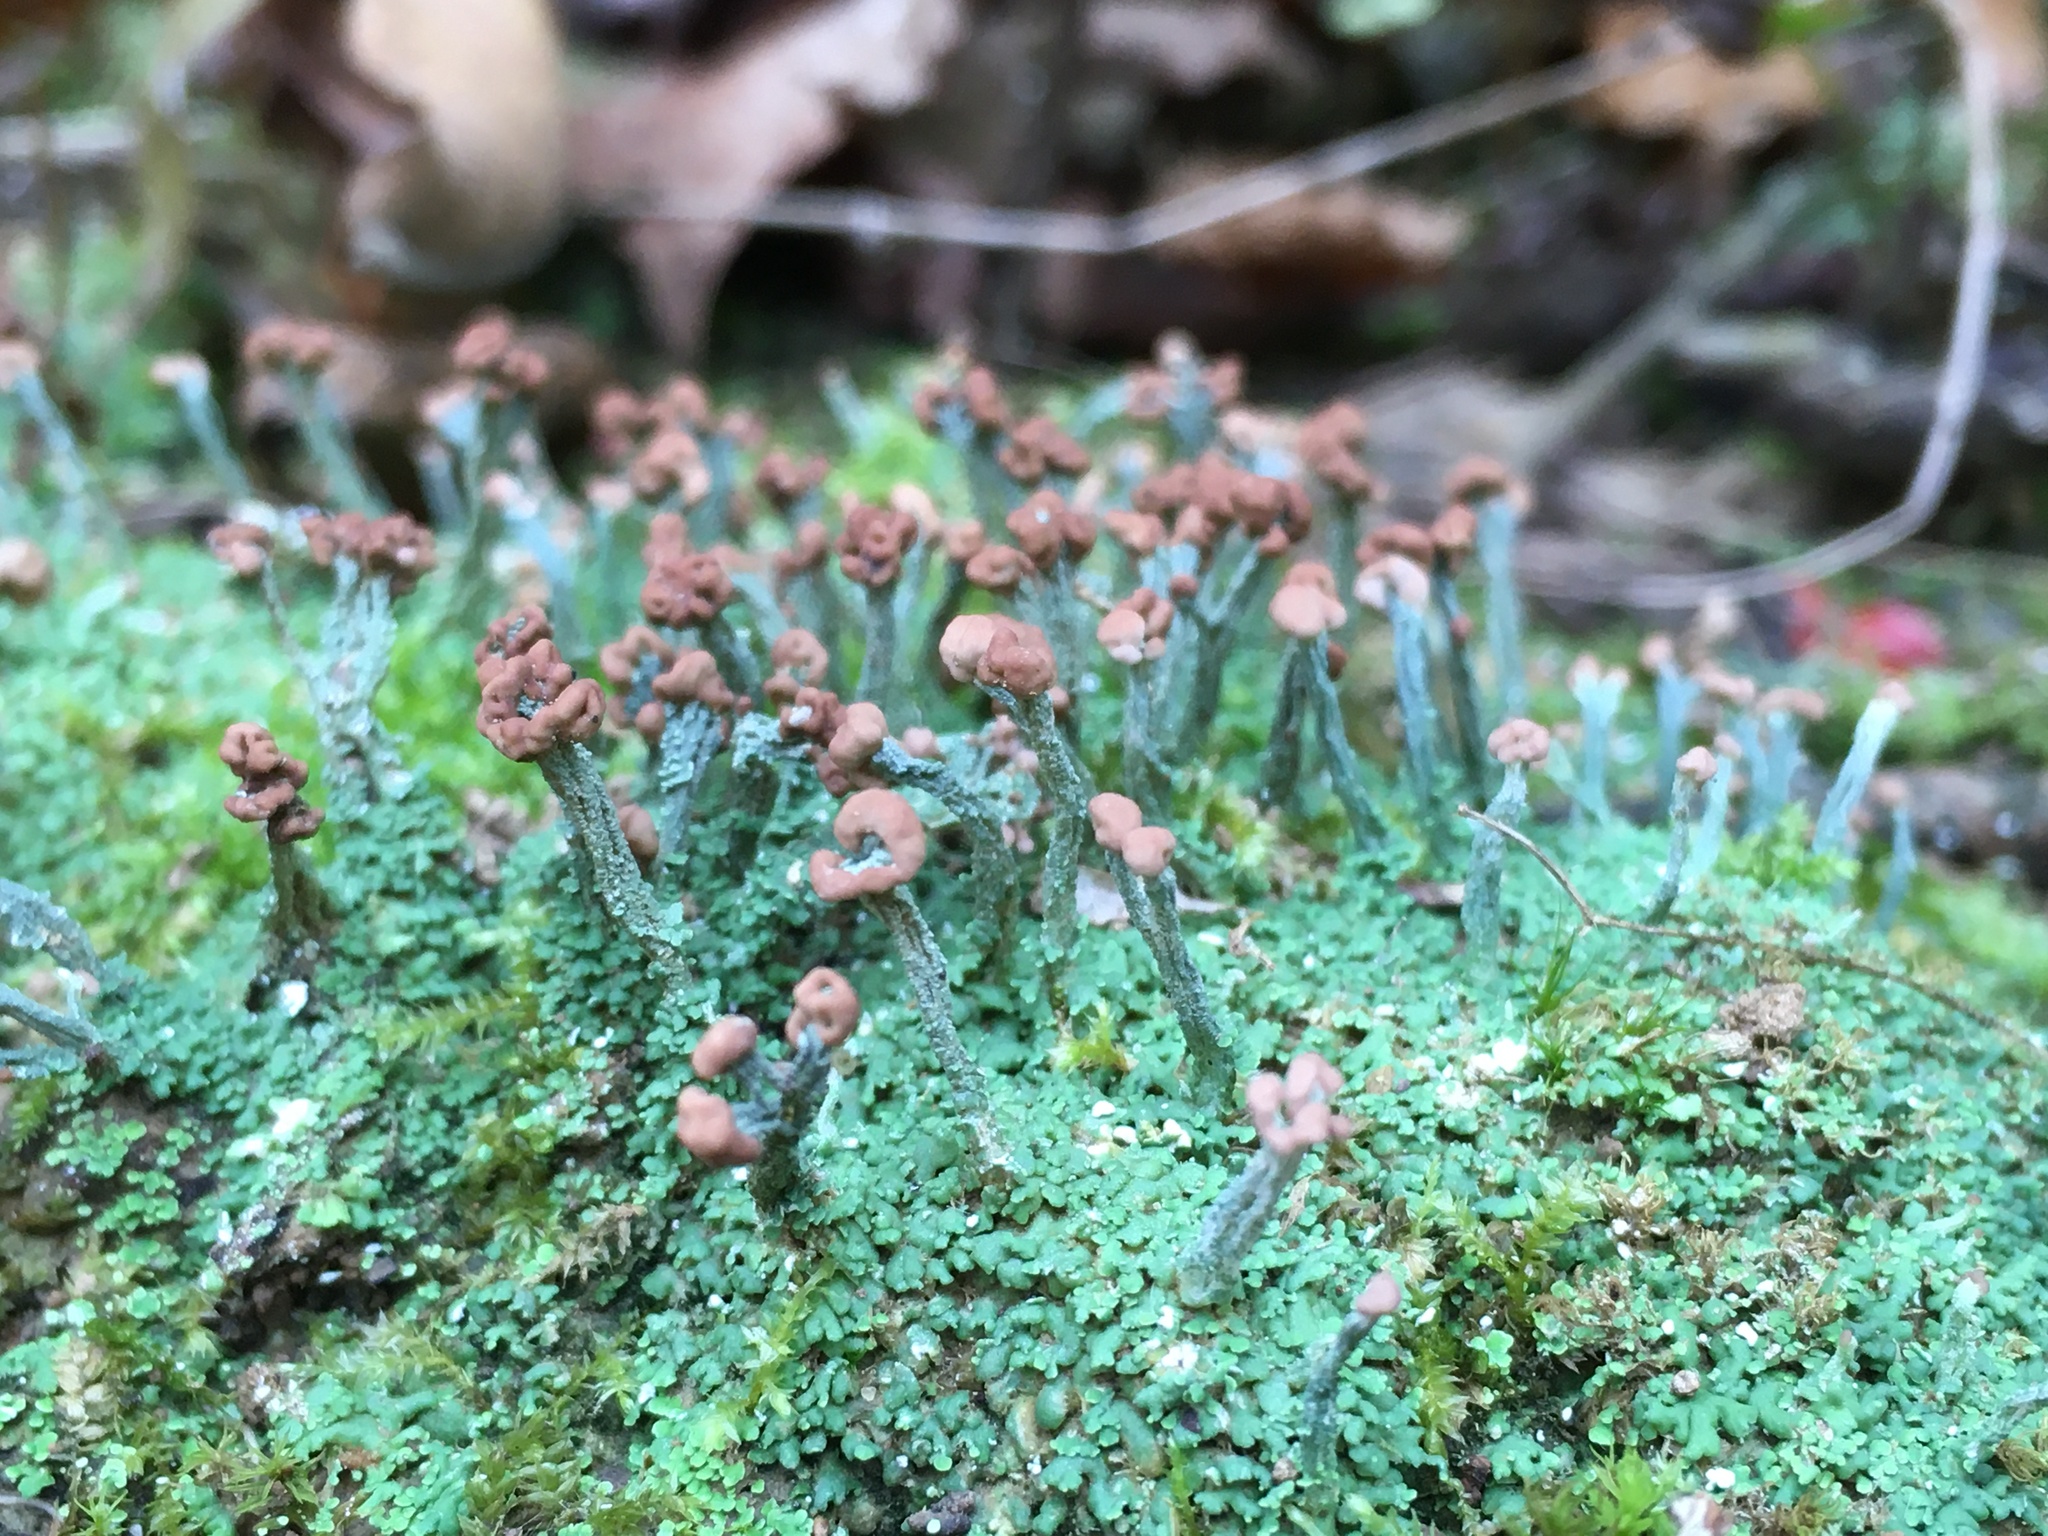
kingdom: Fungi
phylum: Ascomycota
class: Lecanoromycetes
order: Lecanorales
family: Cladoniaceae
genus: Cladonia
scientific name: Cladonia peziziformis
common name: Cup lichen
